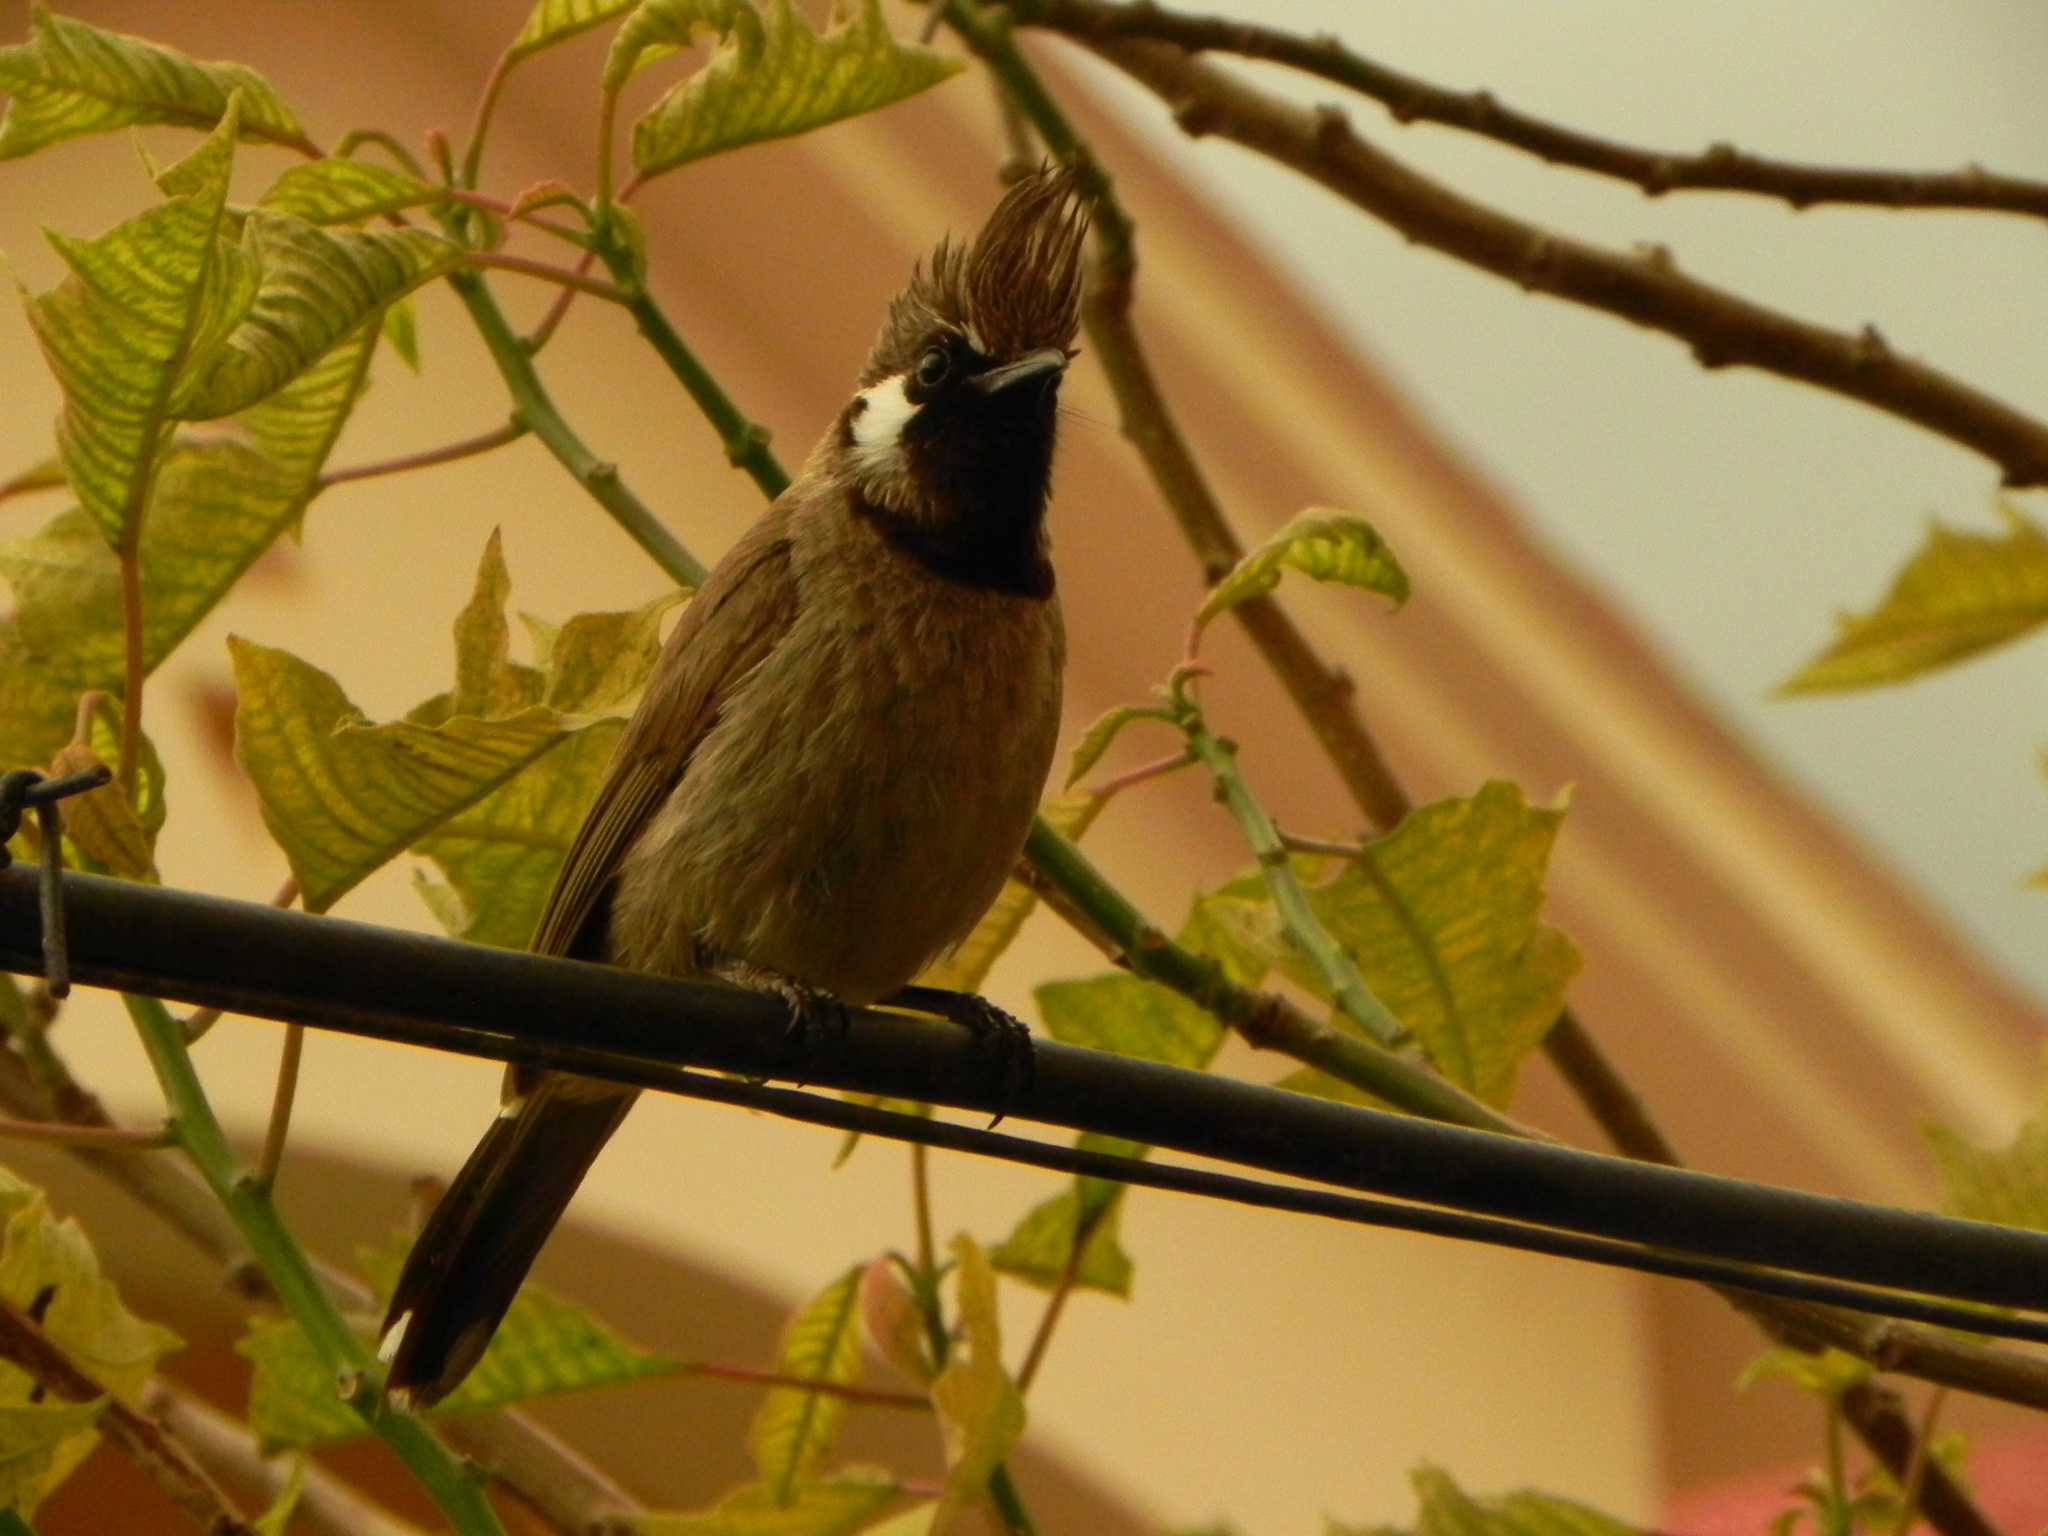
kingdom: Animalia
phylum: Chordata
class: Aves
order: Passeriformes
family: Pycnonotidae
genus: Pycnonotus
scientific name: Pycnonotus leucogenys
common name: Himalayan bulbul
